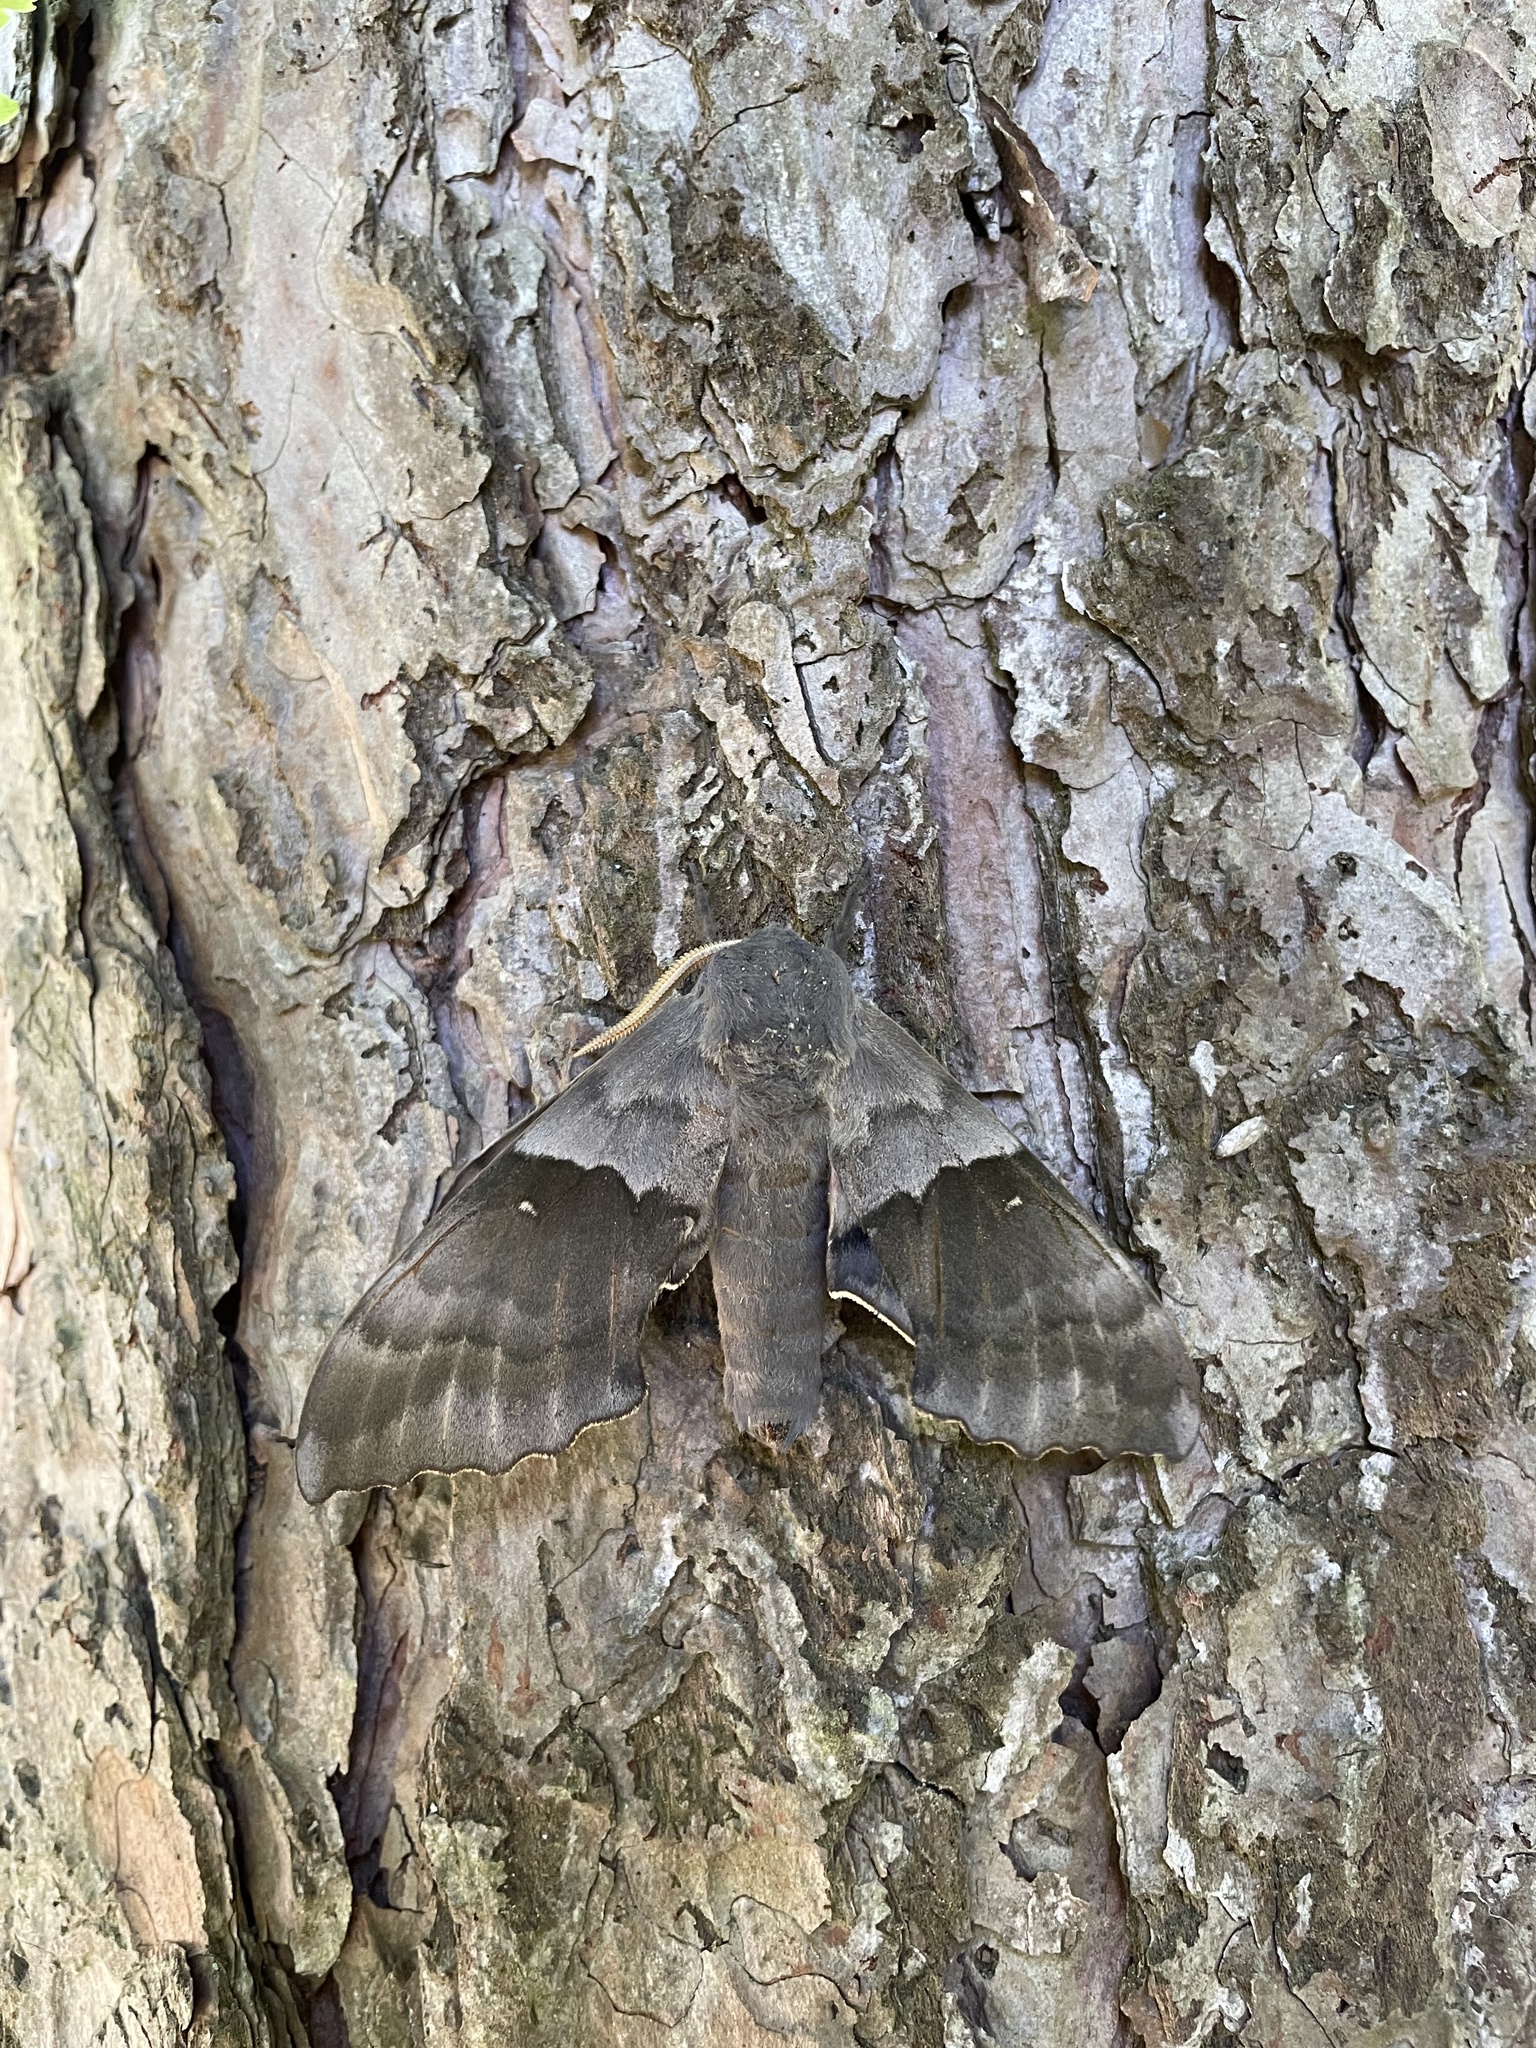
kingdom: Animalia
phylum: Arthropoda
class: Insecta
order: Lepidoptera
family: Sphingidae
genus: Pachysphinx
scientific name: Pachysphinx modesta
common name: Big poplar sphinx
